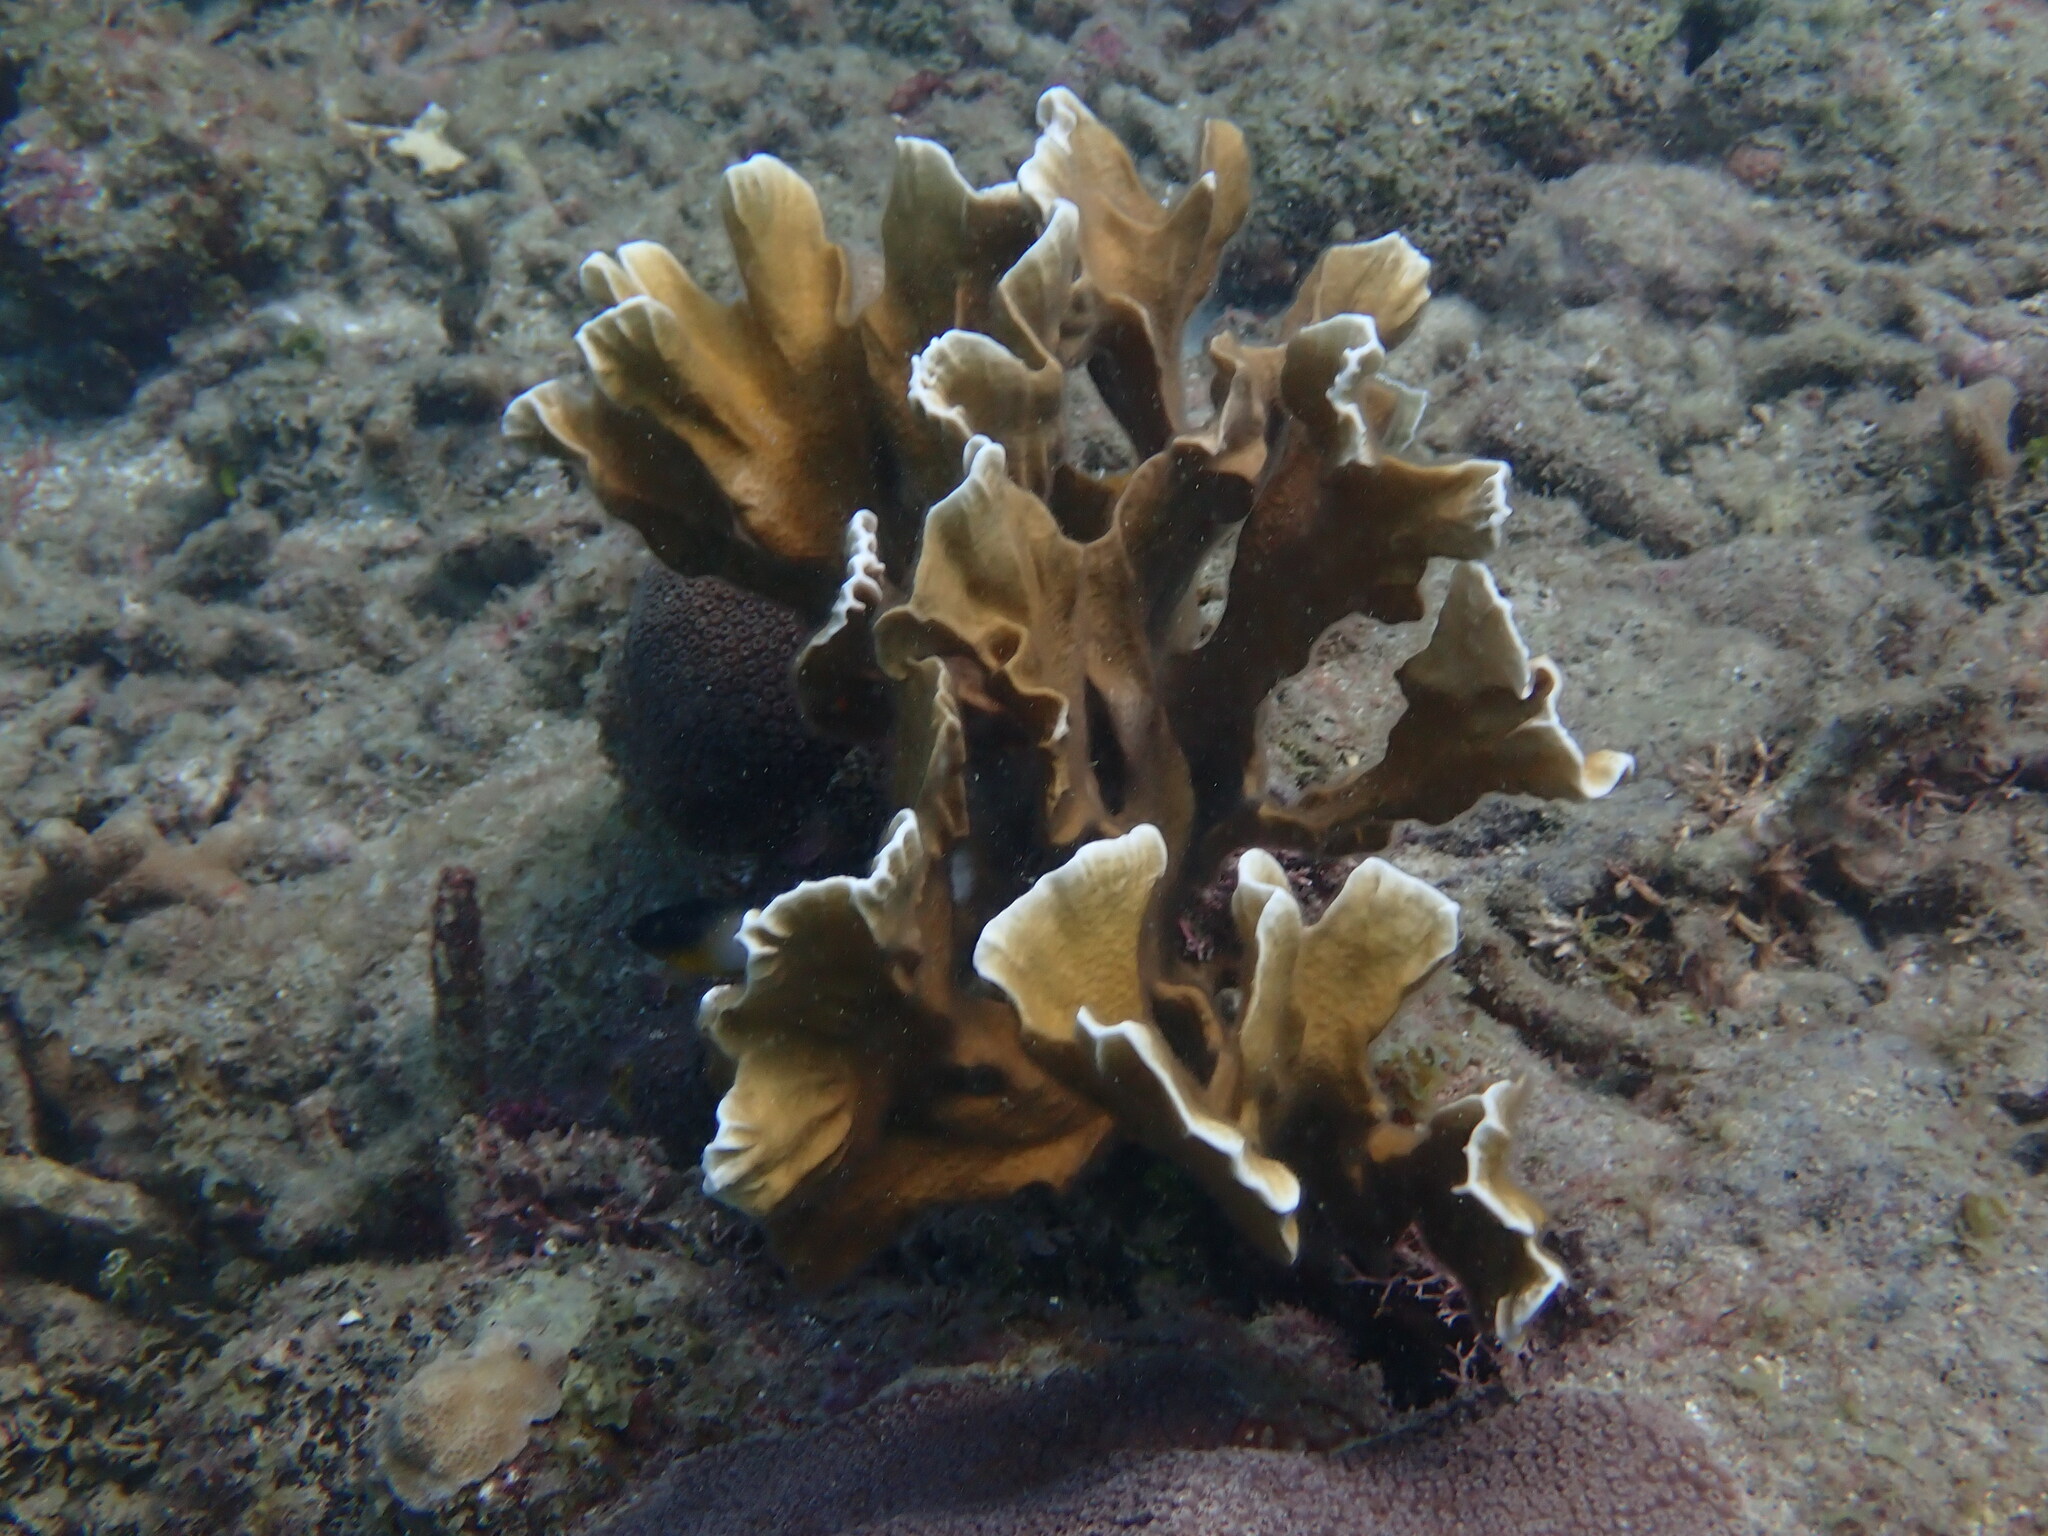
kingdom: Animalia
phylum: Cnidaria
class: Hydrozoa
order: Anthoathecata
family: Milleporidae
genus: Millepora
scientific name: Millepora complanata
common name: Bladed fire coral
